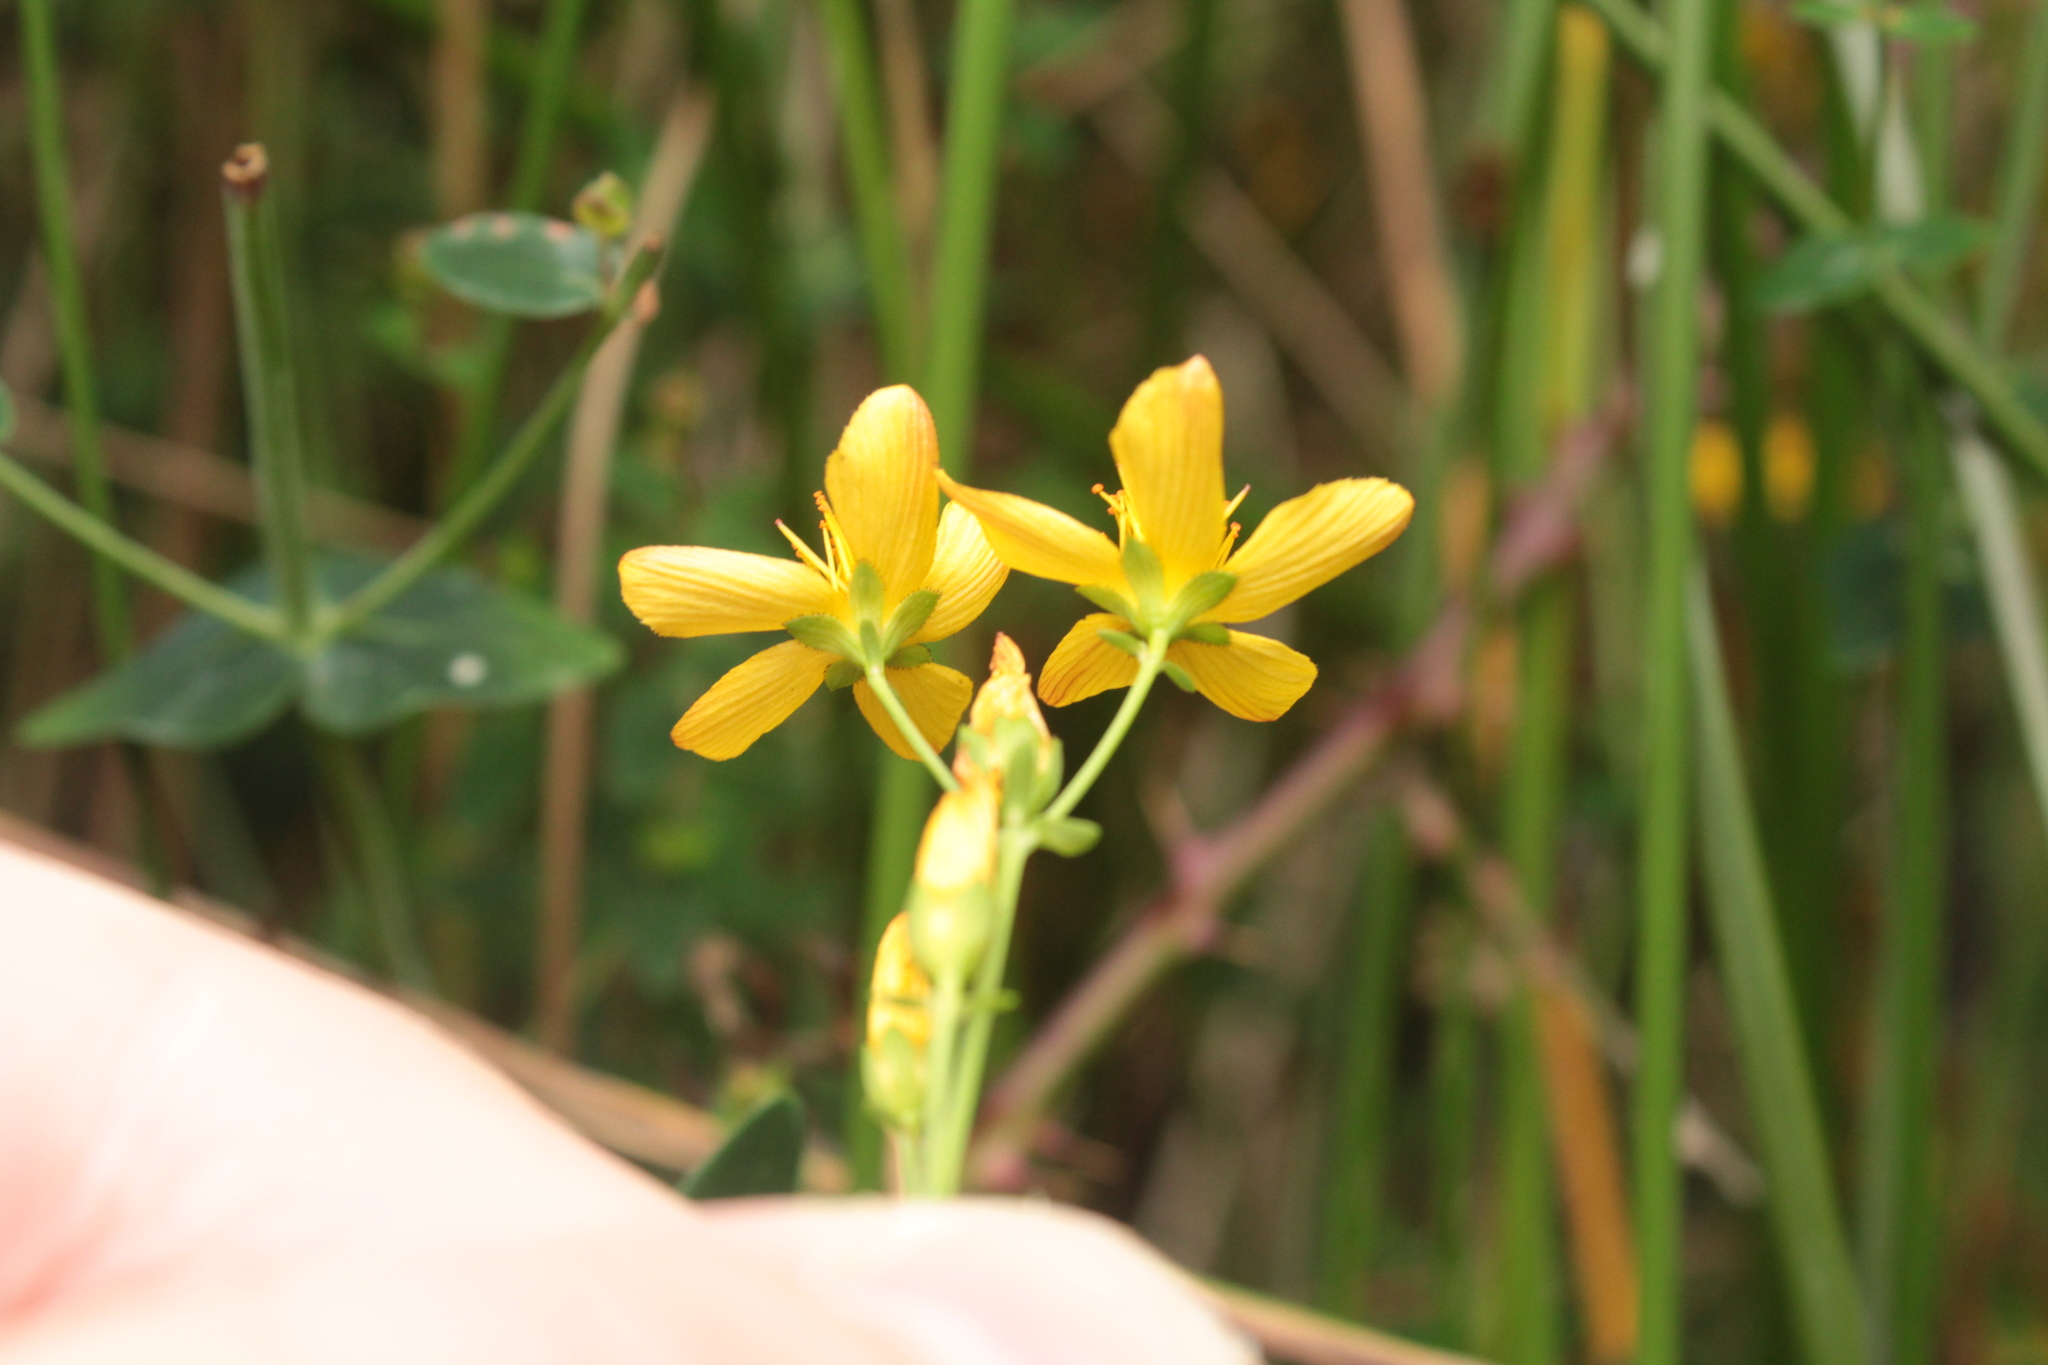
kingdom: Plantae
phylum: Tracheophyta
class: Magnoliopsida
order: Malpighiales
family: Hypericaceae
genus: Hypericum
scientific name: Hypericum pulchrum
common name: Slender st. john's-wort
